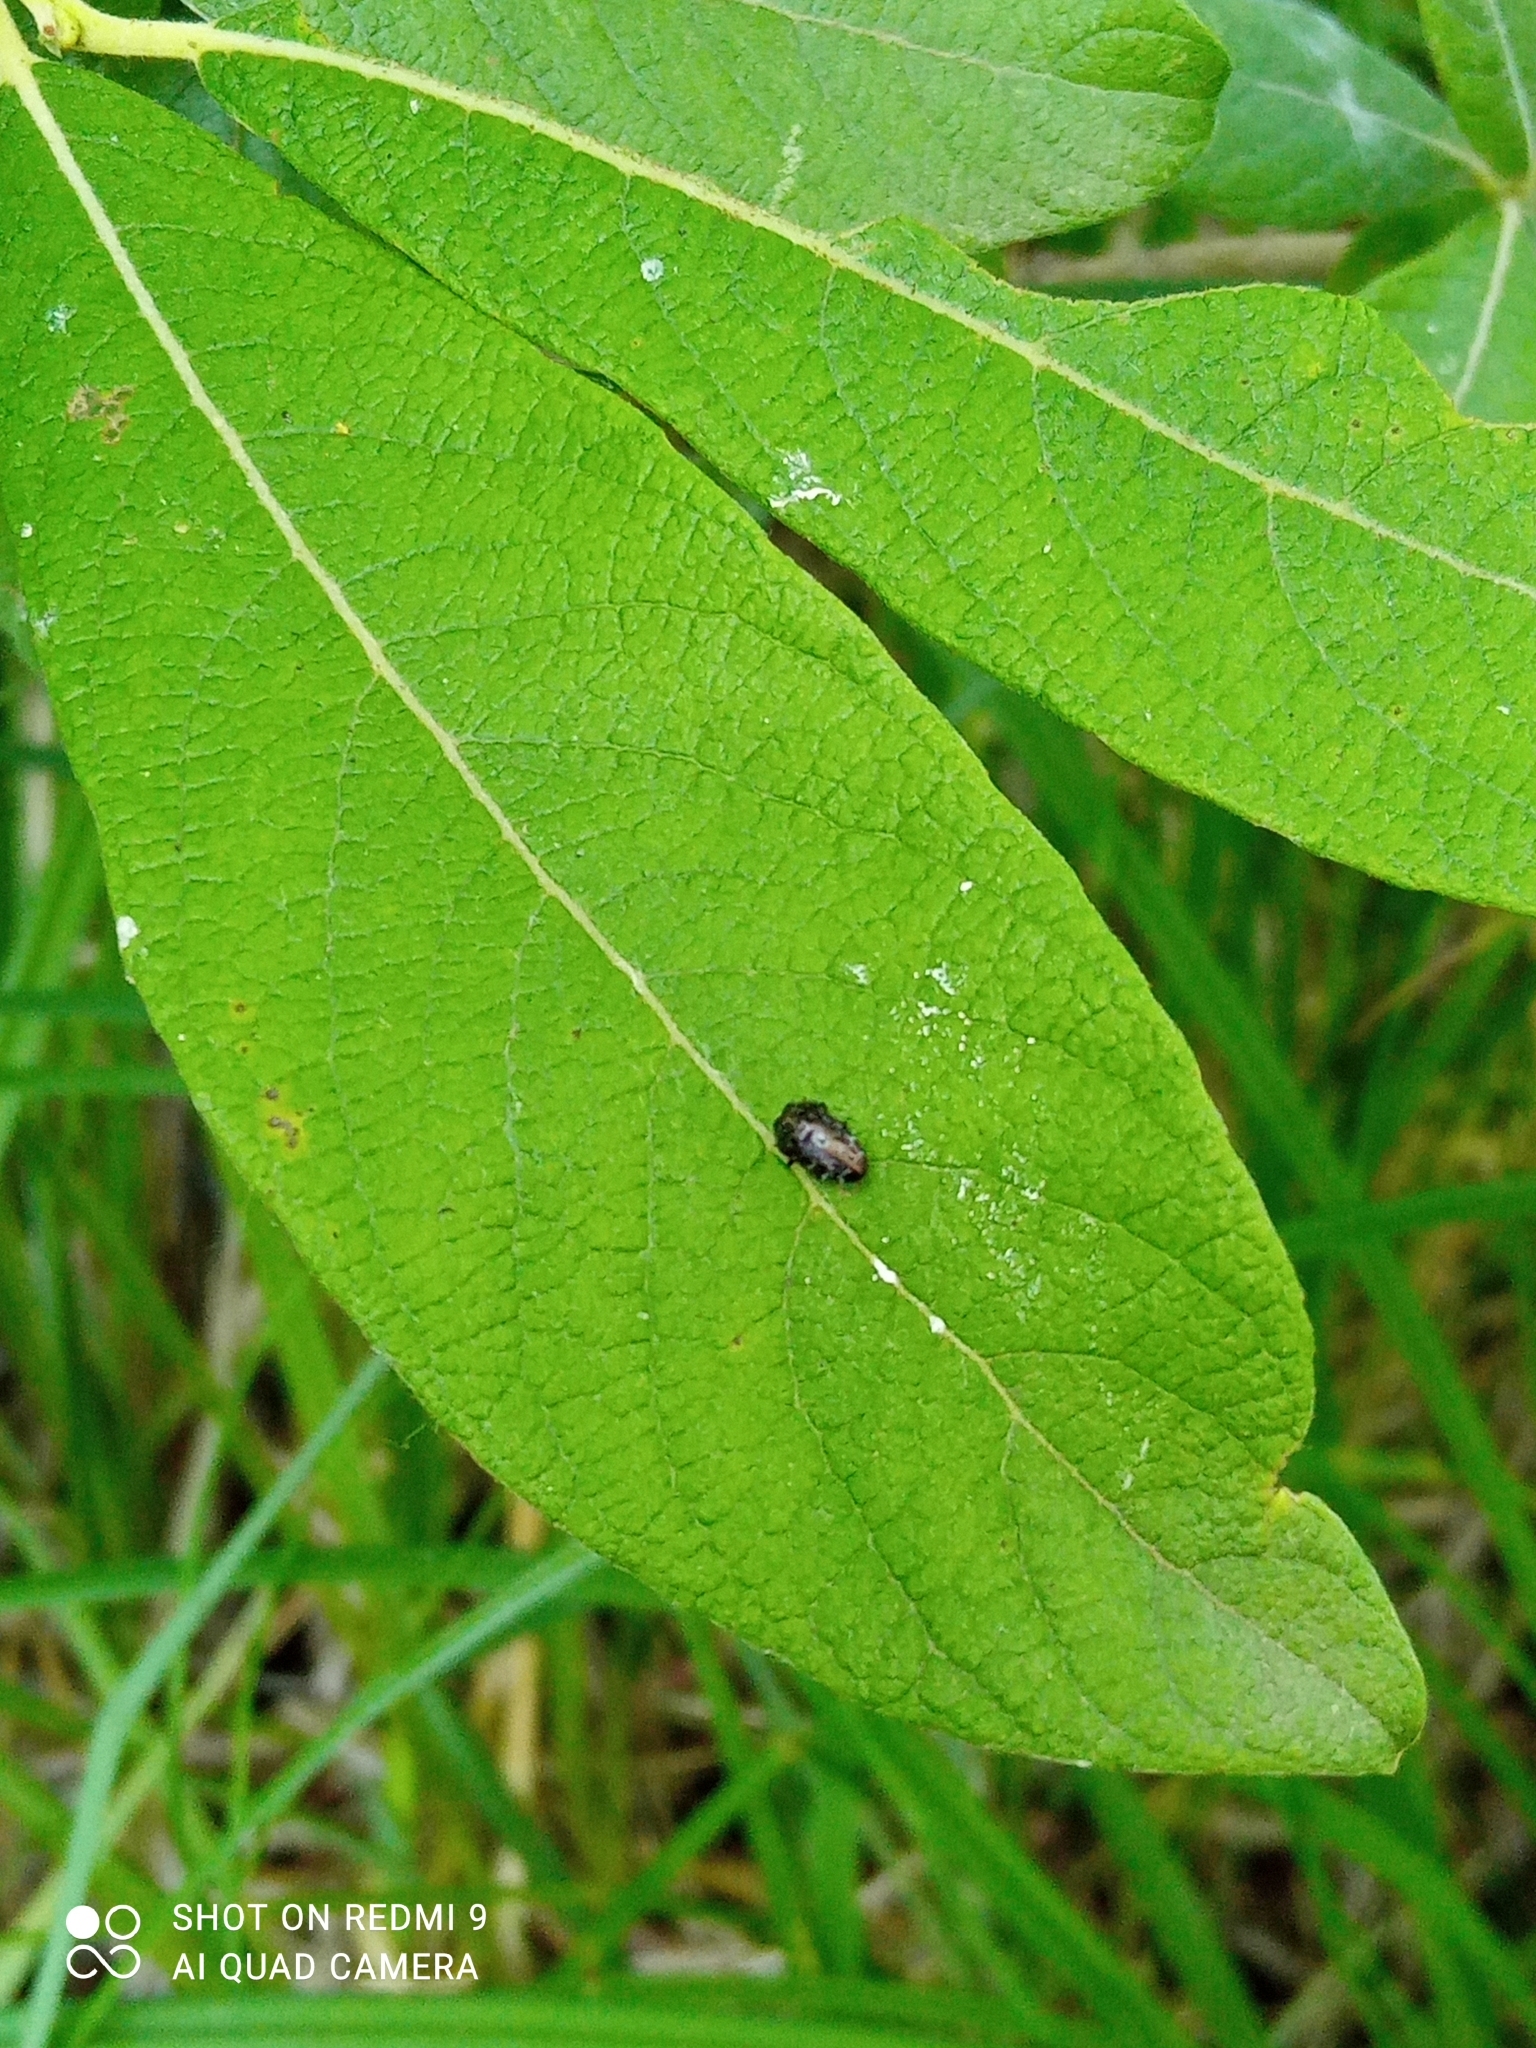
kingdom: Animalia
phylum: Arthropoda
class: Insecta
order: Coleoptera
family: Buprestidae
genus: Trachys
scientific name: Trachys minutus
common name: Metallic wood-boring beetle
